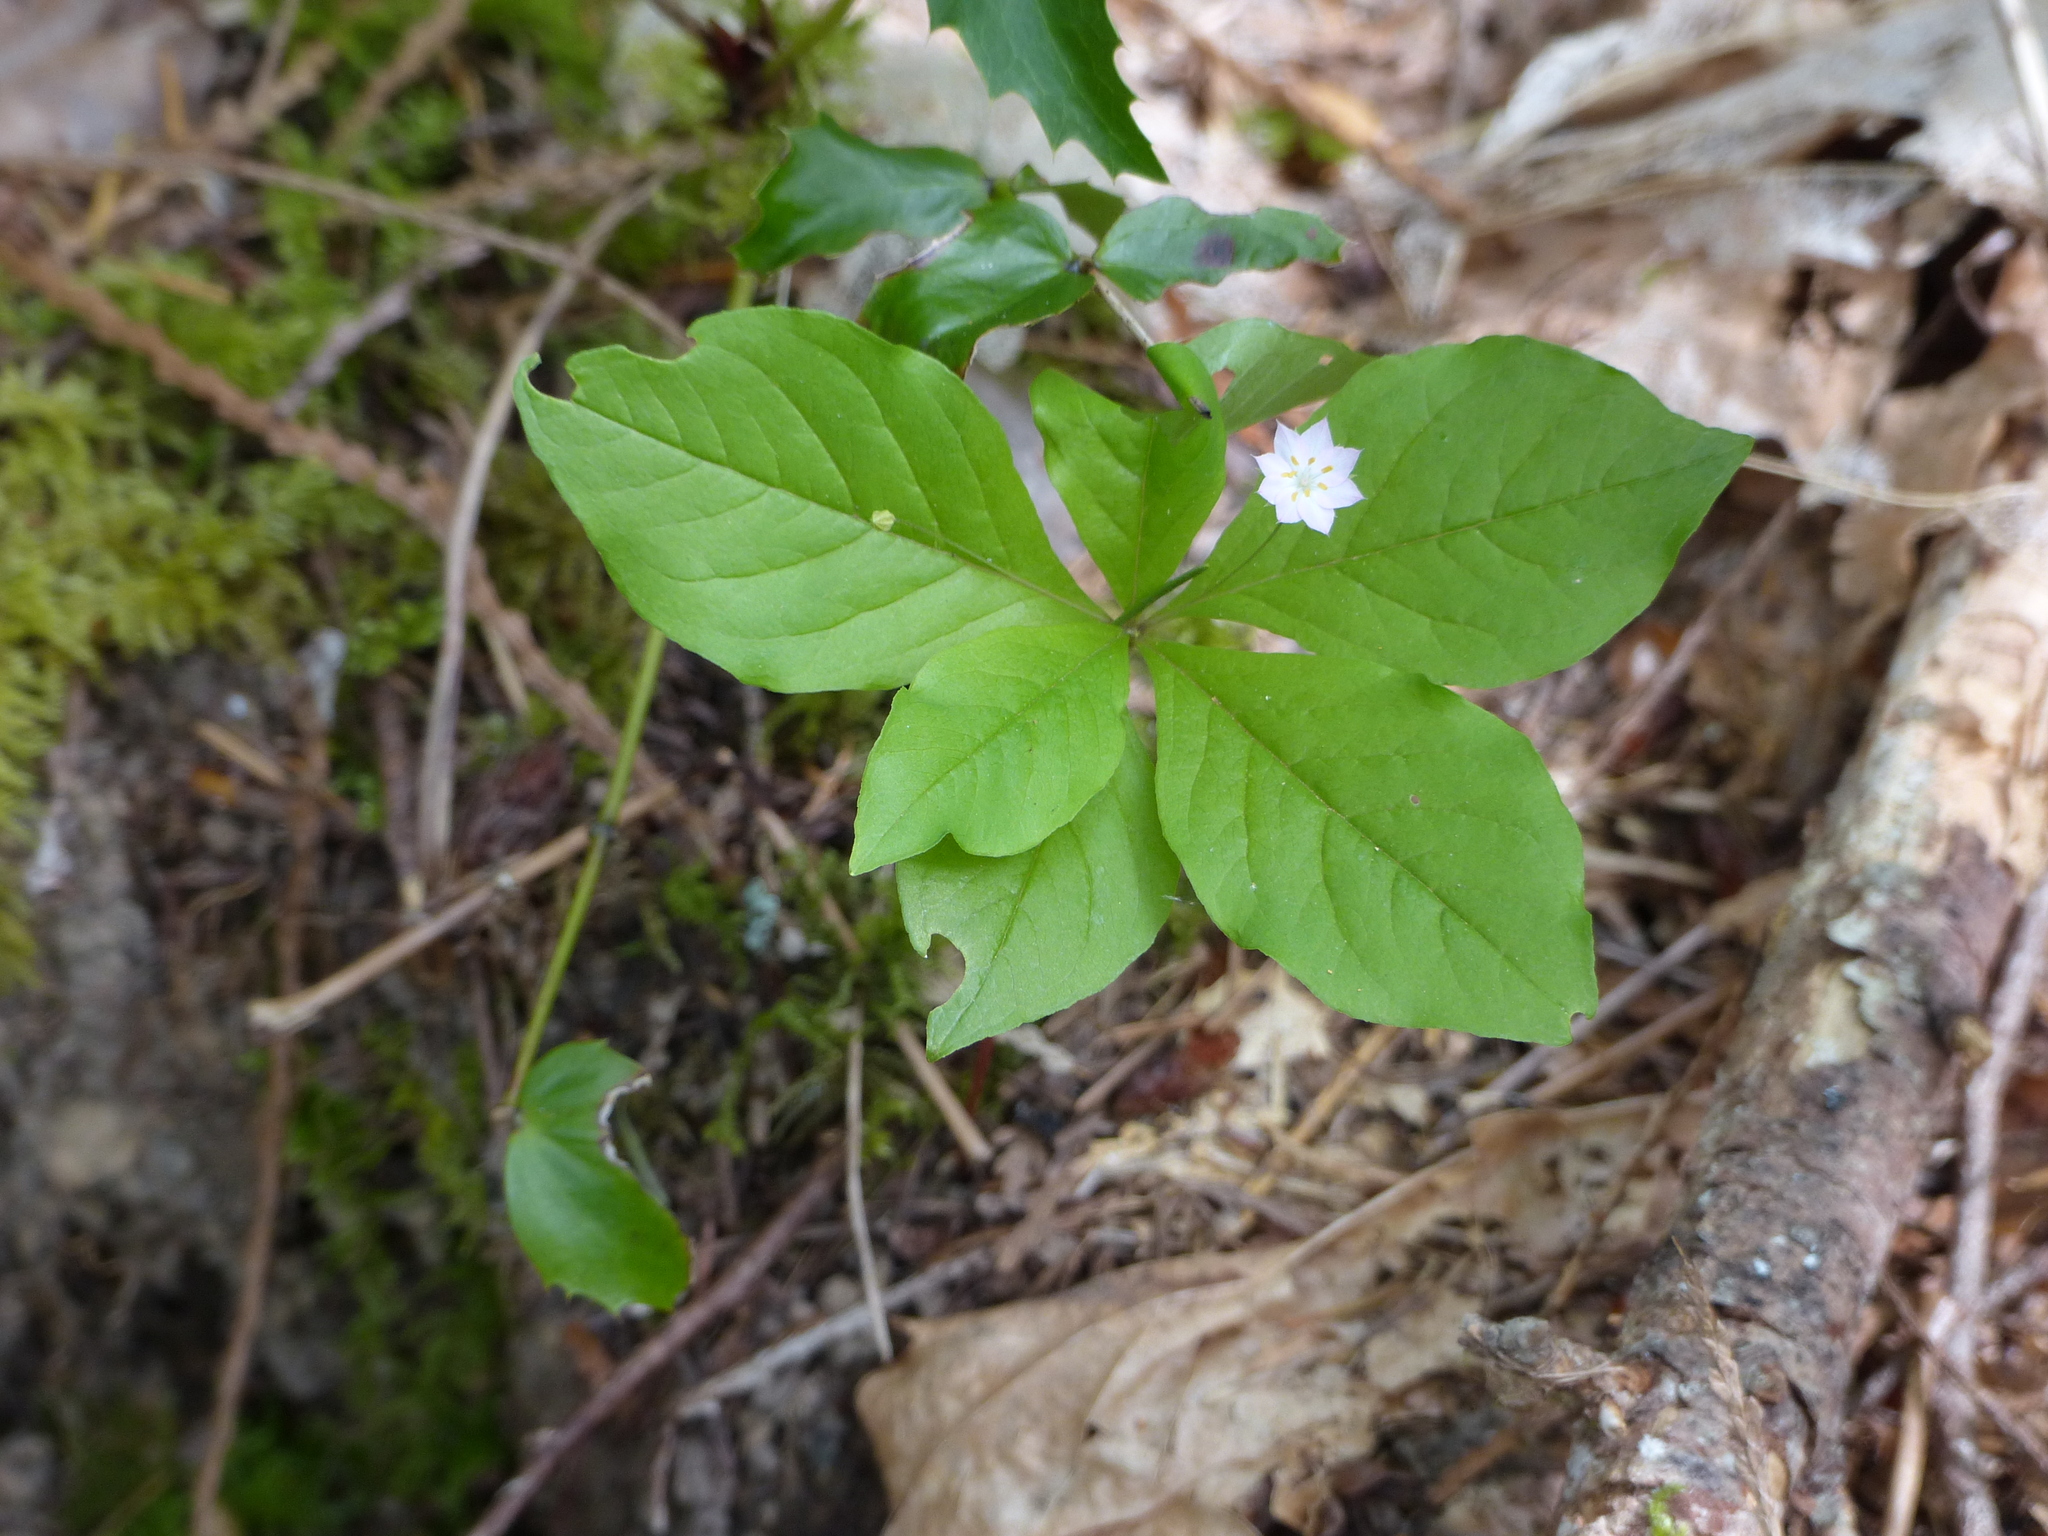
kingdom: Plantae
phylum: Tracheophyta
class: Magnoliopsida
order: Ericales
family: Primulaceae
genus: Lysimachia
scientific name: Lysimachia latifolia
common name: Pacific starflower
